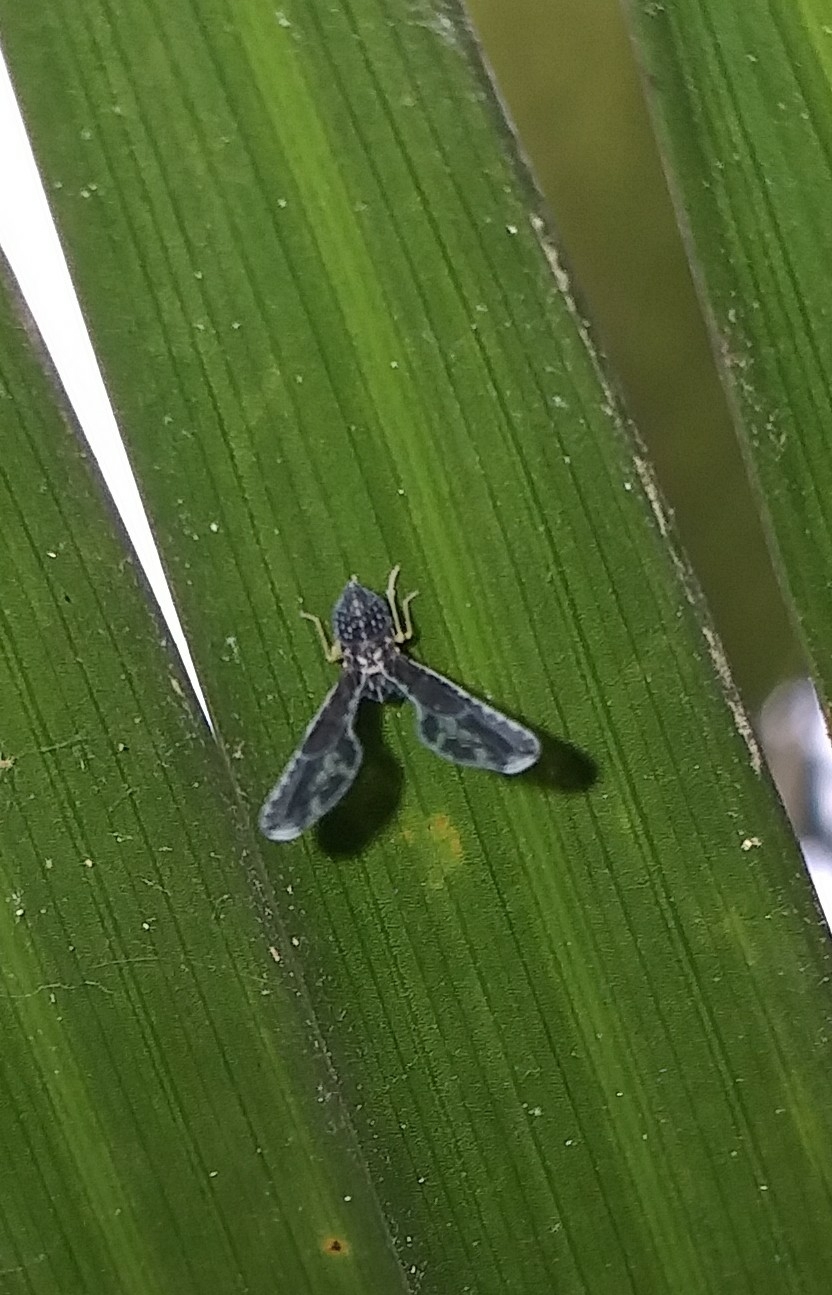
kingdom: Animalia
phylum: Arthropoda
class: Insecta
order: Hemiptera
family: Derbidae
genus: Proutista
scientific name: Proutista moesta
